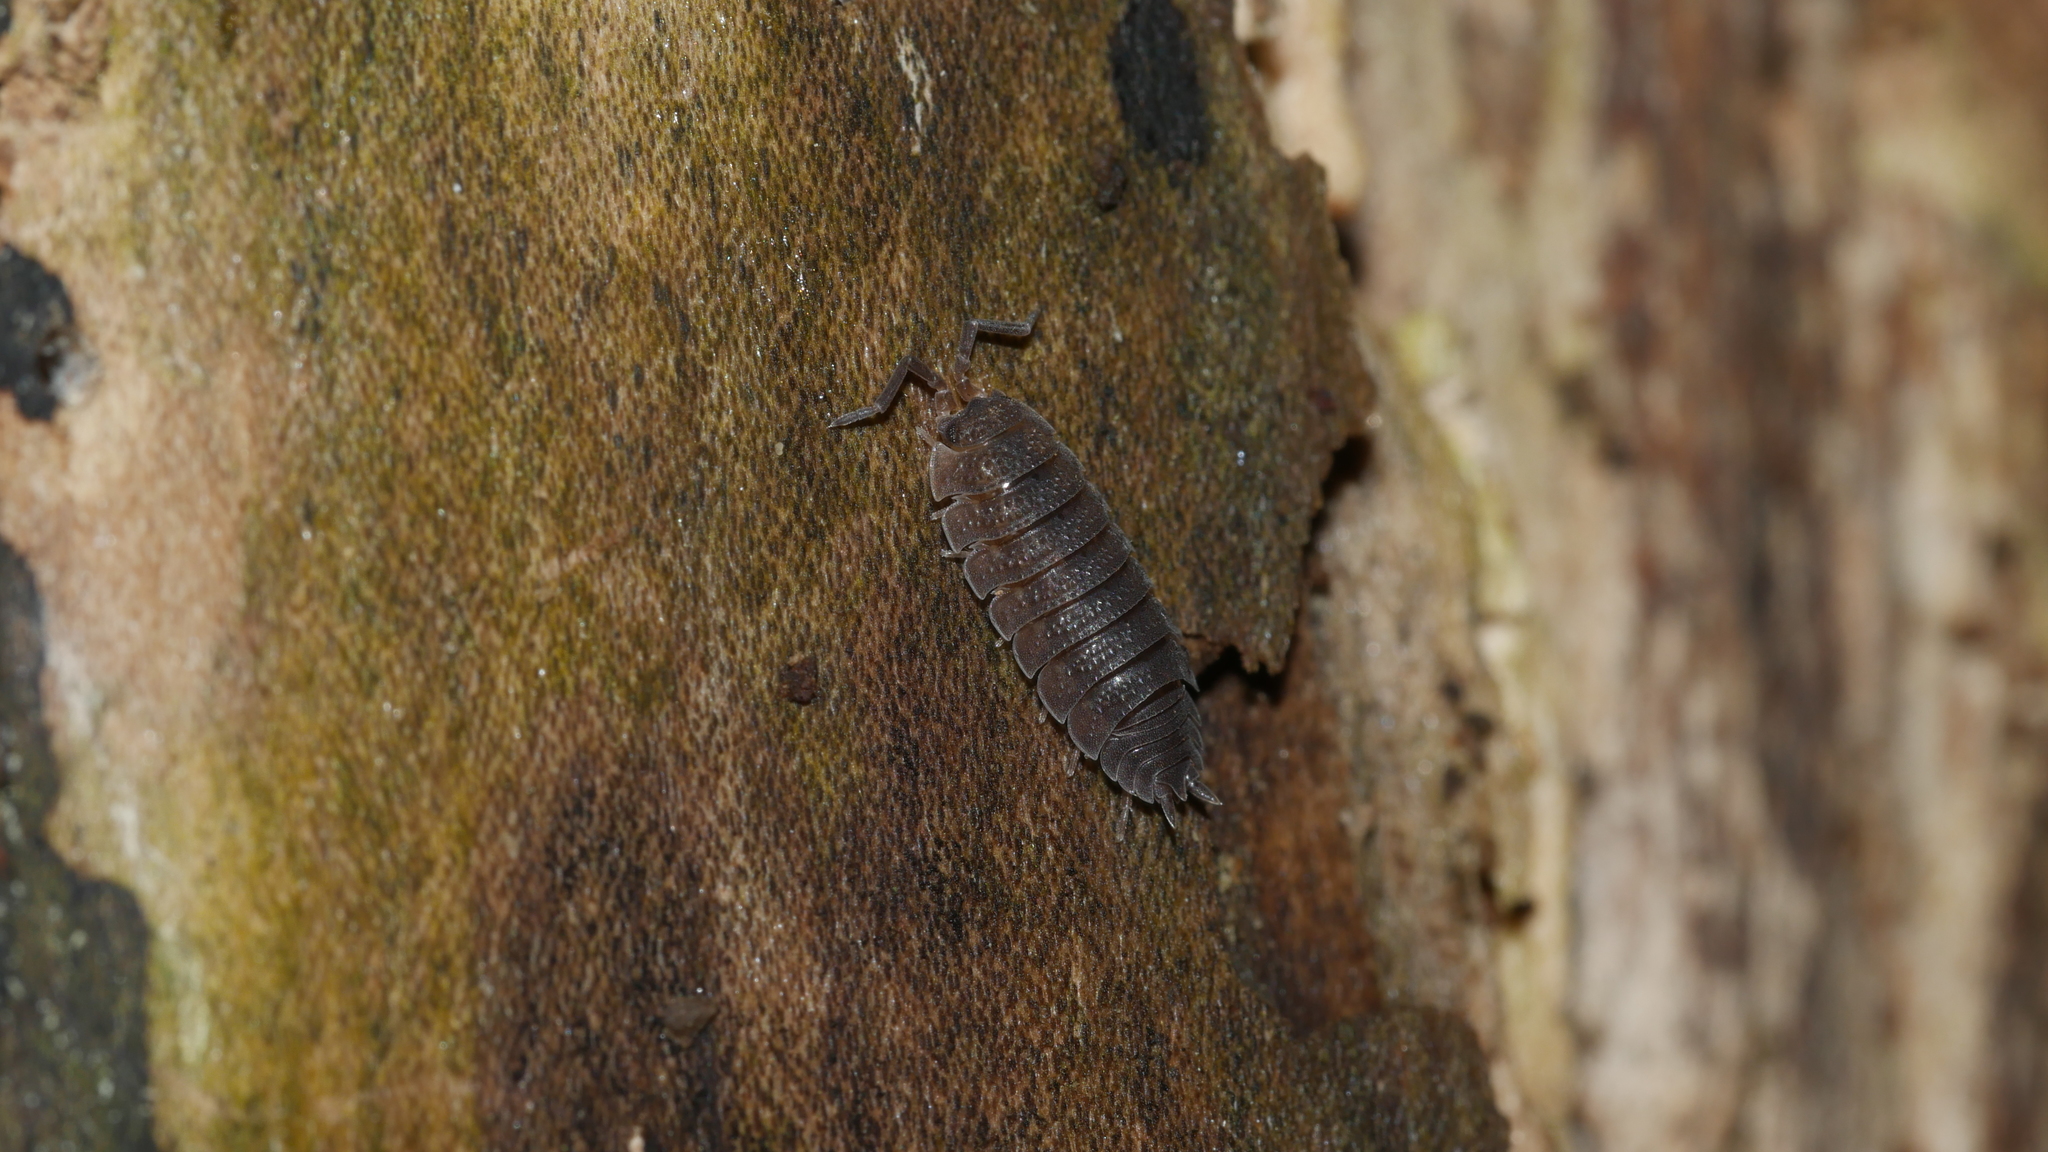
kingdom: Animalia
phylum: Arthropoda
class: Malacostraca
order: Isopoda
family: Porcellionidae
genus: Porcellio
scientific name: Porcellio scaber
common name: Common rough woodlouse
